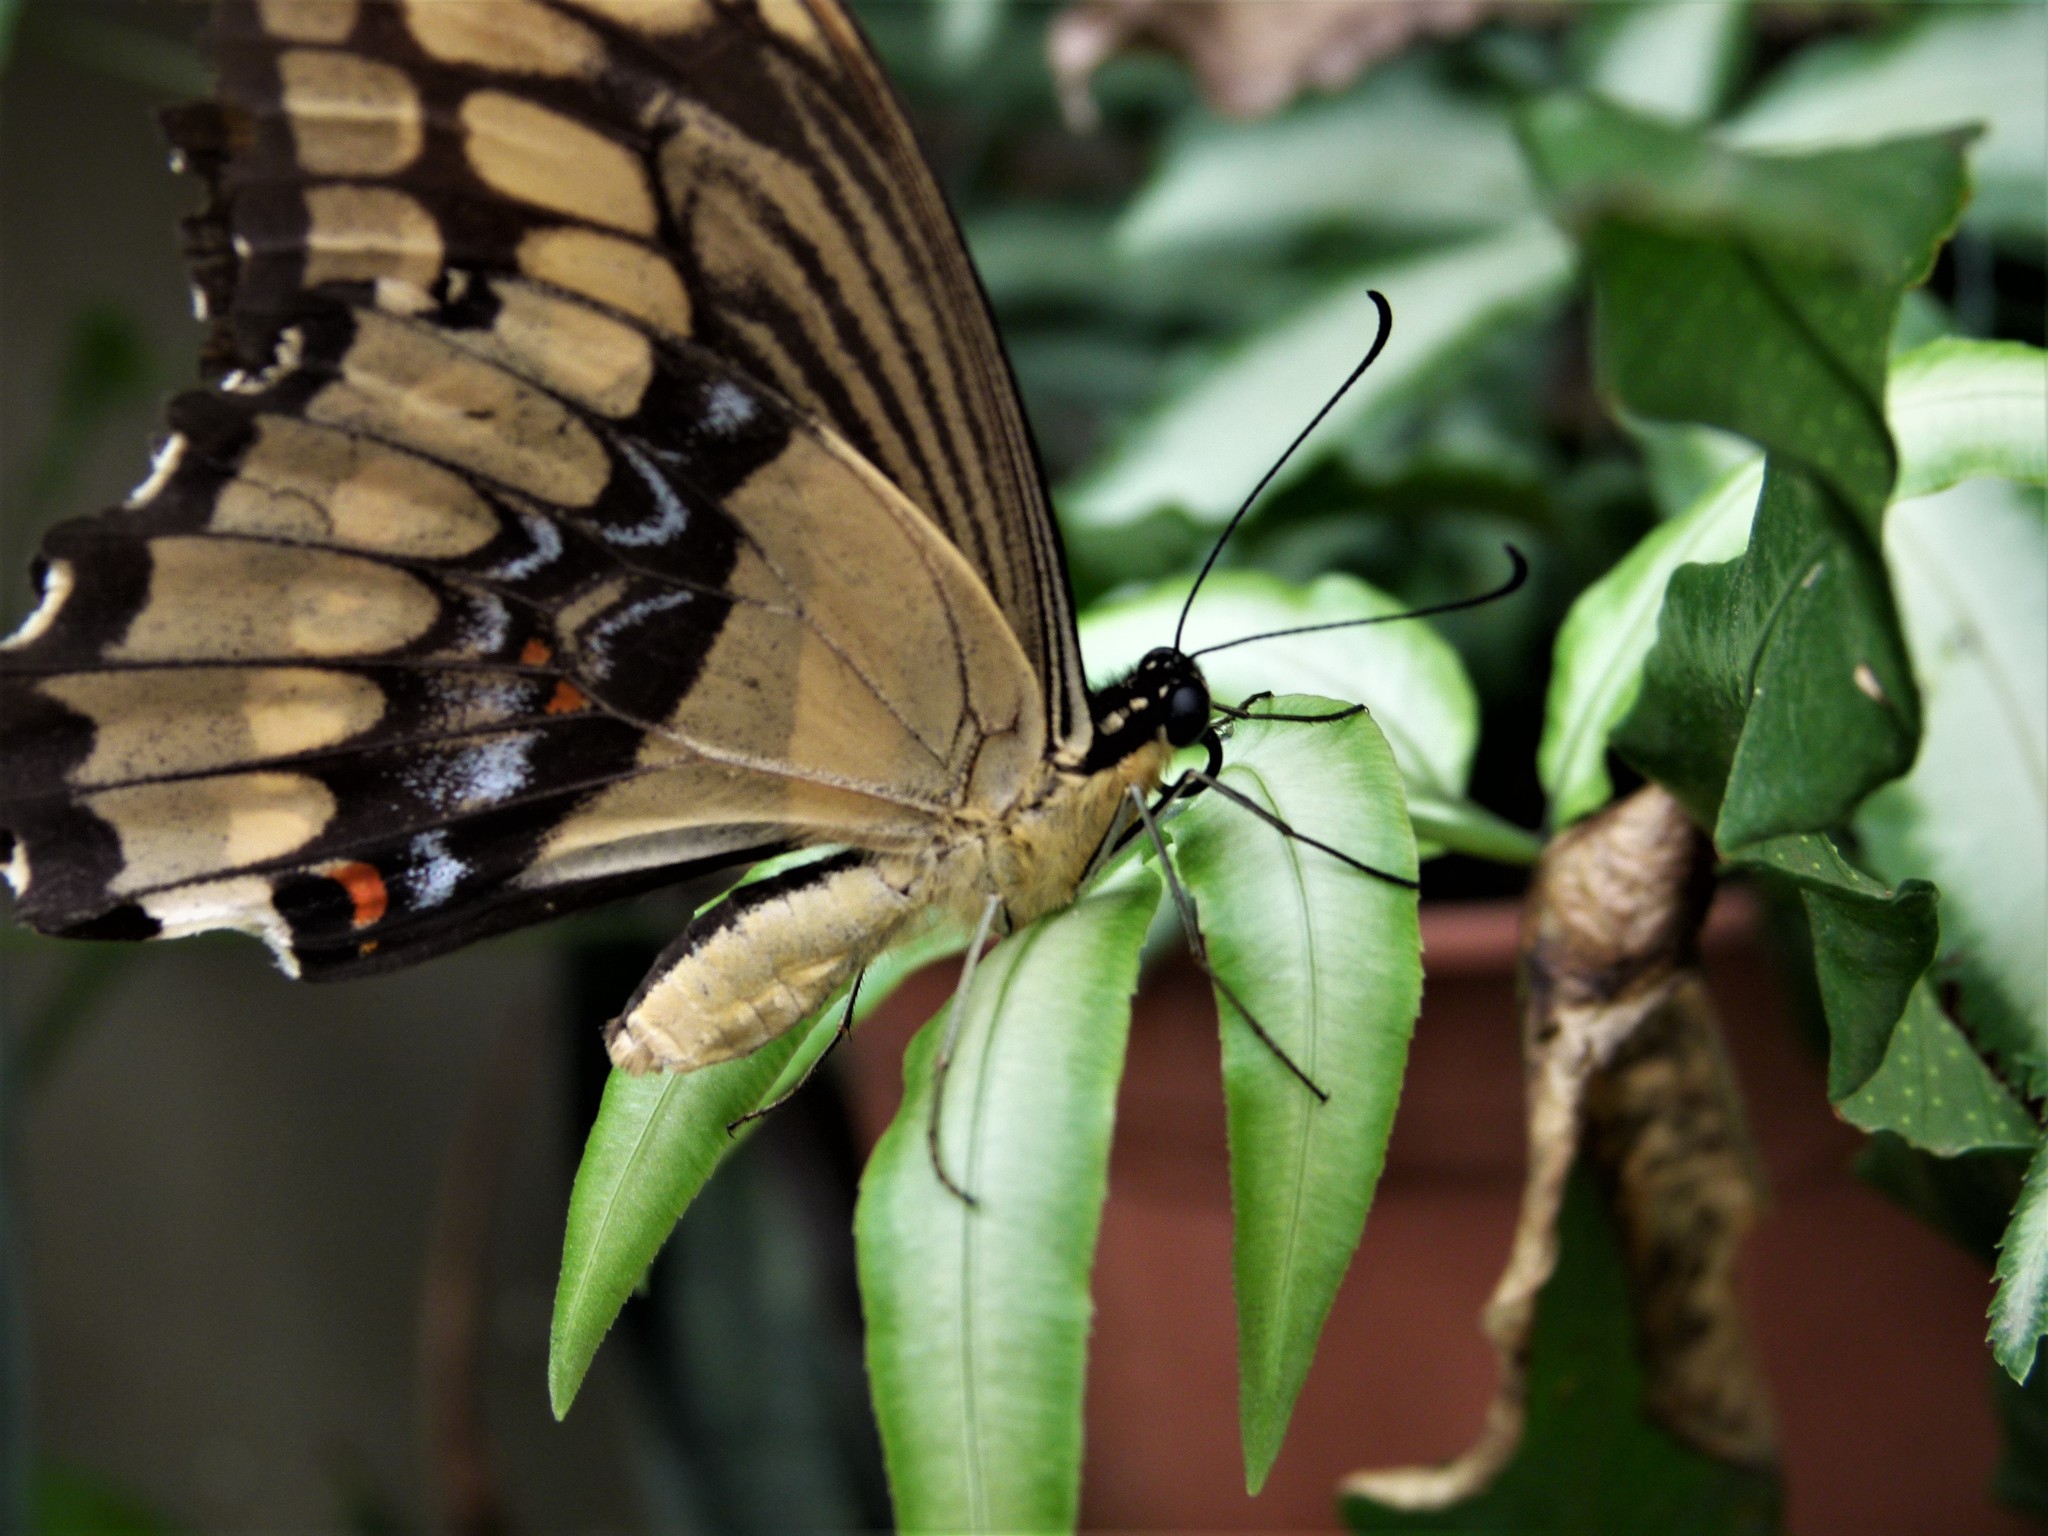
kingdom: Animalia
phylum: Arthropoda
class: Insecta
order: Lepidoptera
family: Papilionidae
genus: Papilio
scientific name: Papilio thoas
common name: King swallowtail
